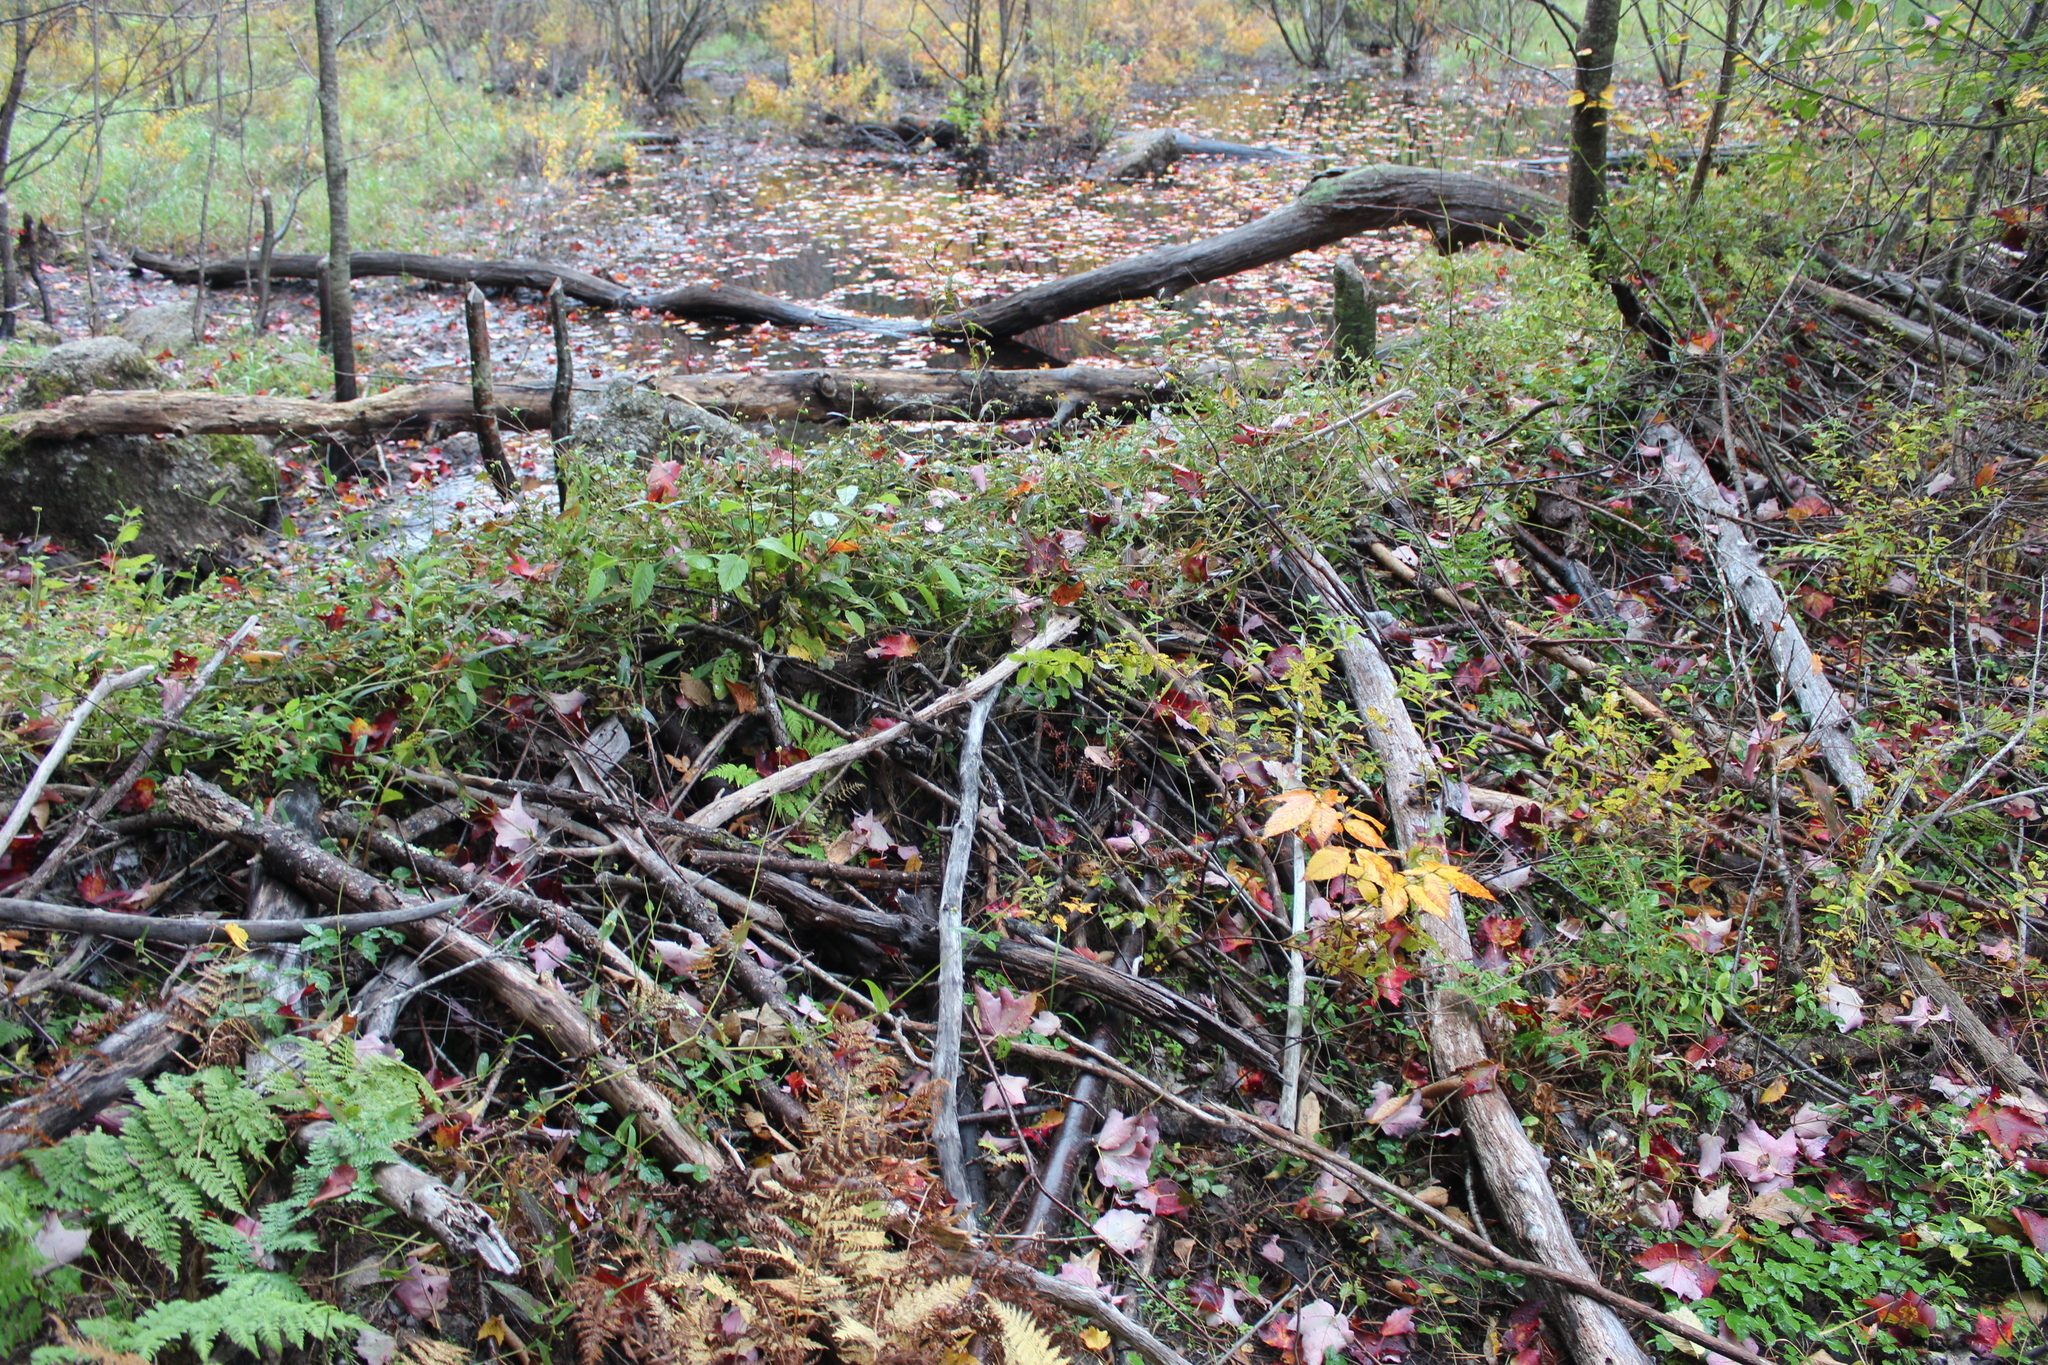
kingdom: Animalia
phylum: Chordata
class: Mammalia
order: Rodentia
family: Castoridae
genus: Castor
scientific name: Castor canadensis
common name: American beaver
